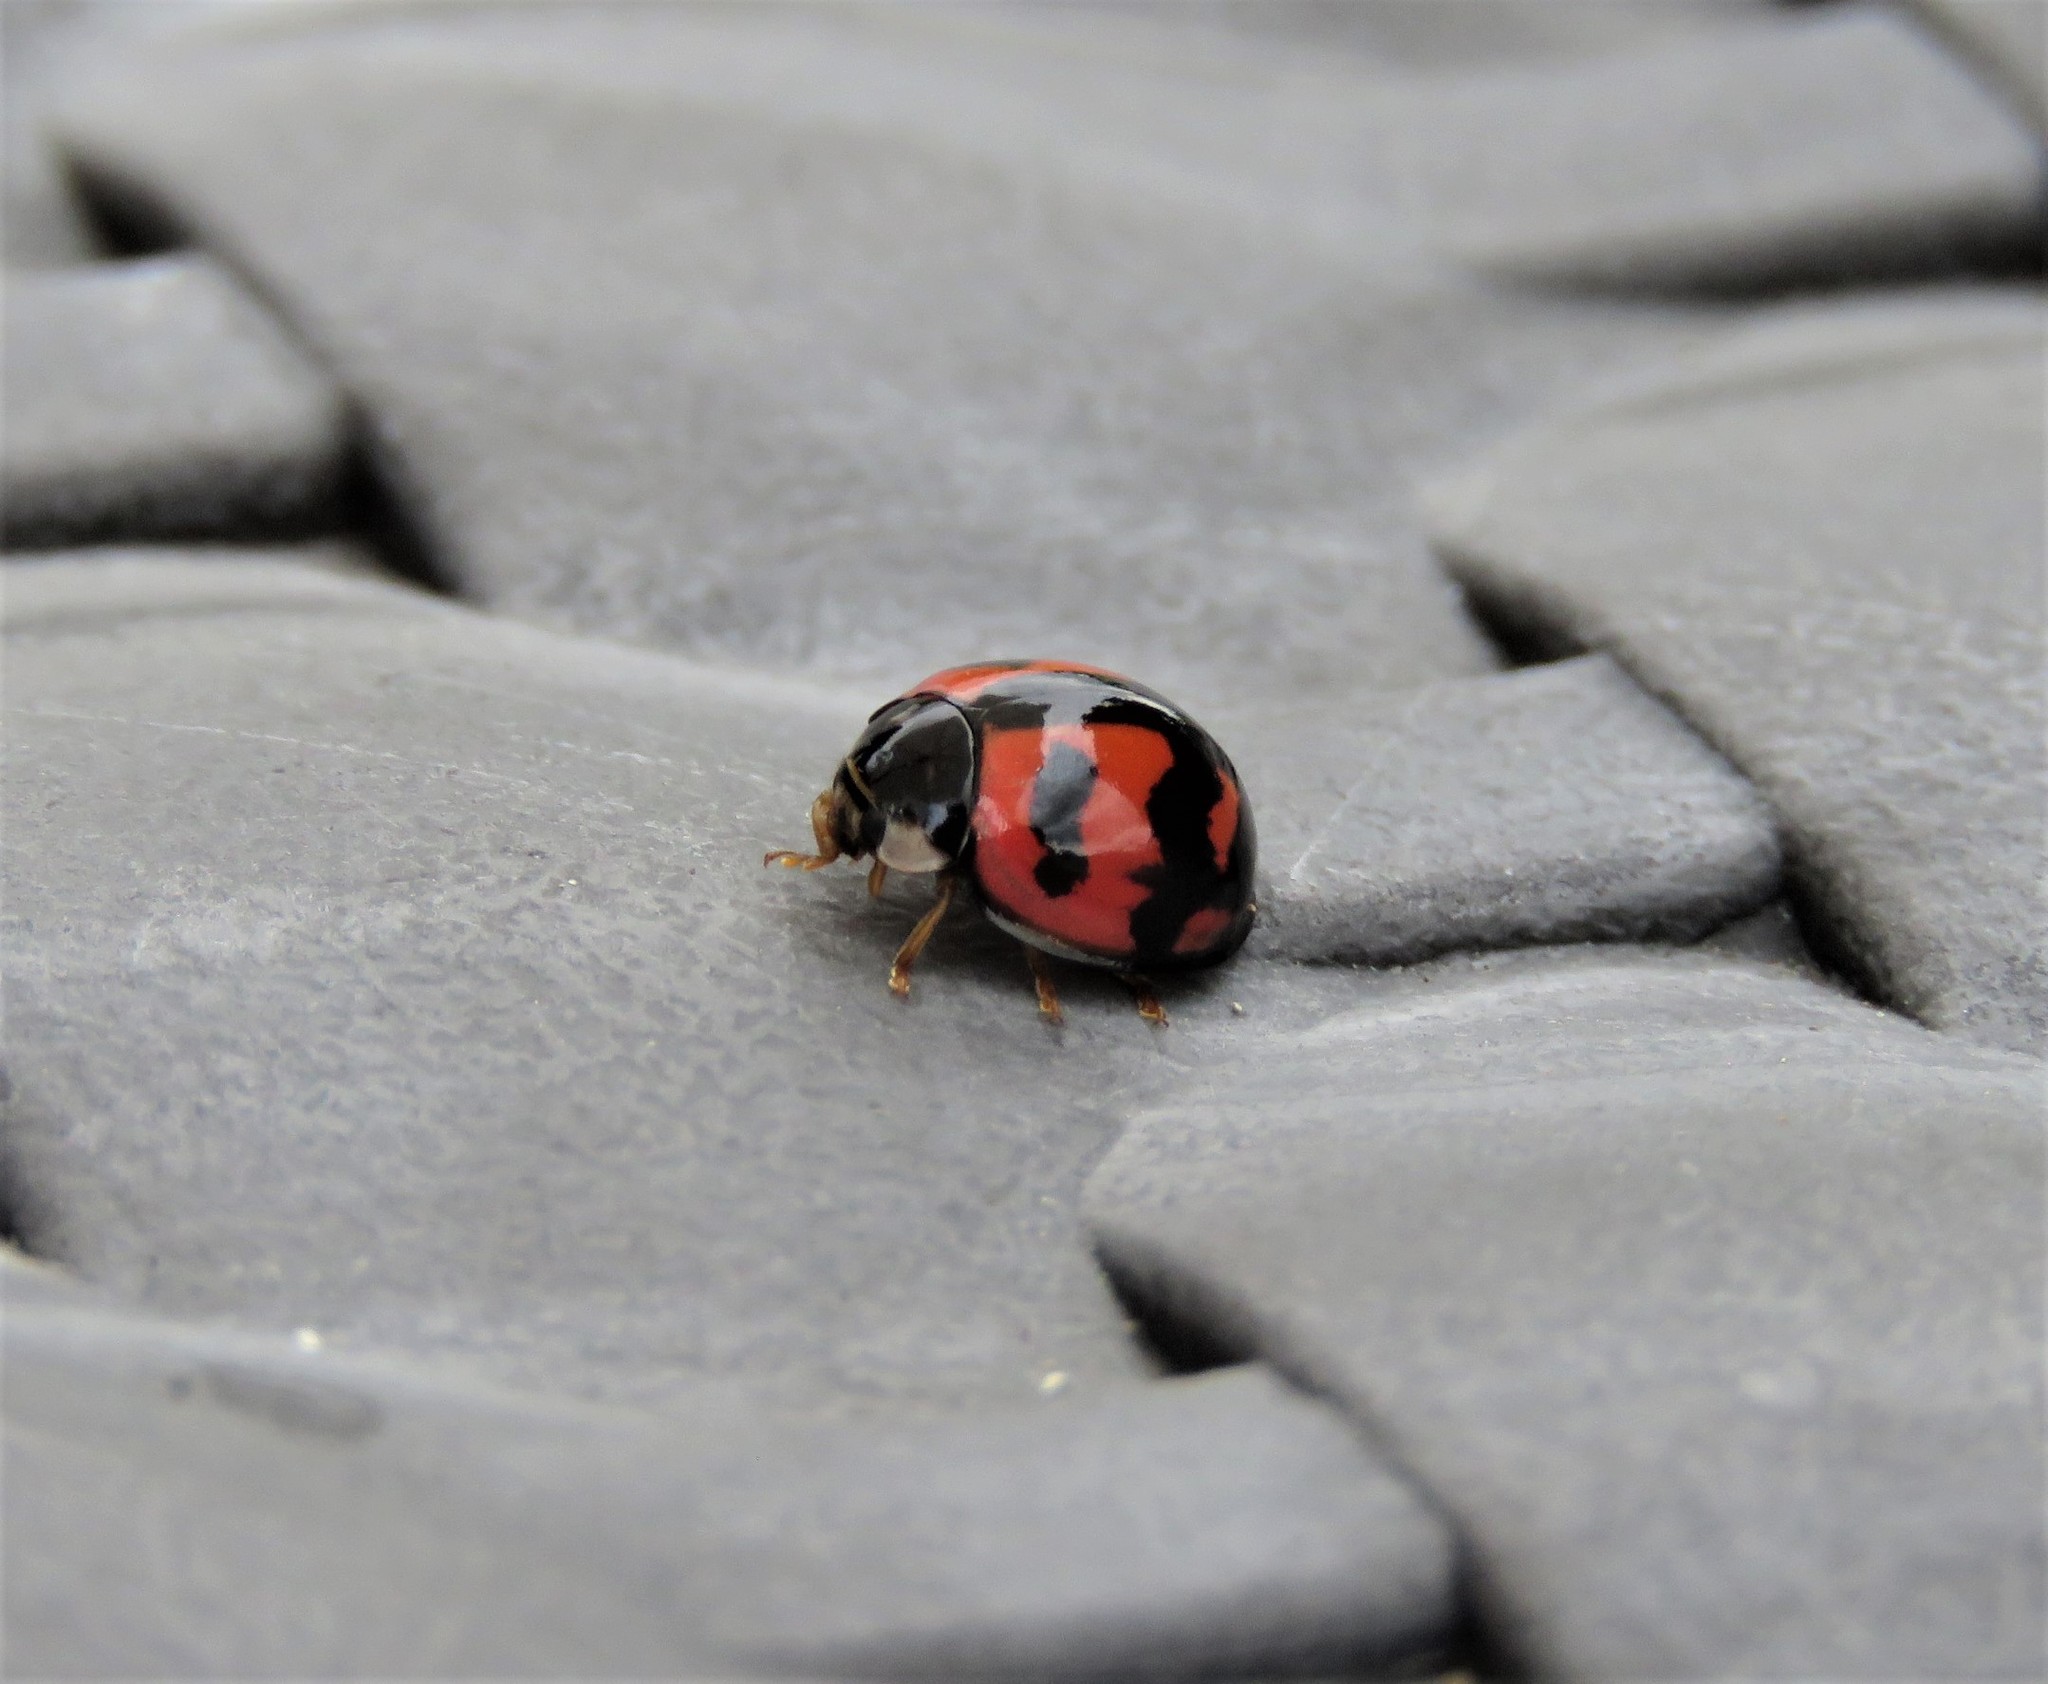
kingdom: Animalia
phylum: Arthropoda
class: Insecta
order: Coleoptera
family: Coccinellidae
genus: Cheilomenes
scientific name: Cheilomenes sexmaculata
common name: Ladybird beetle
